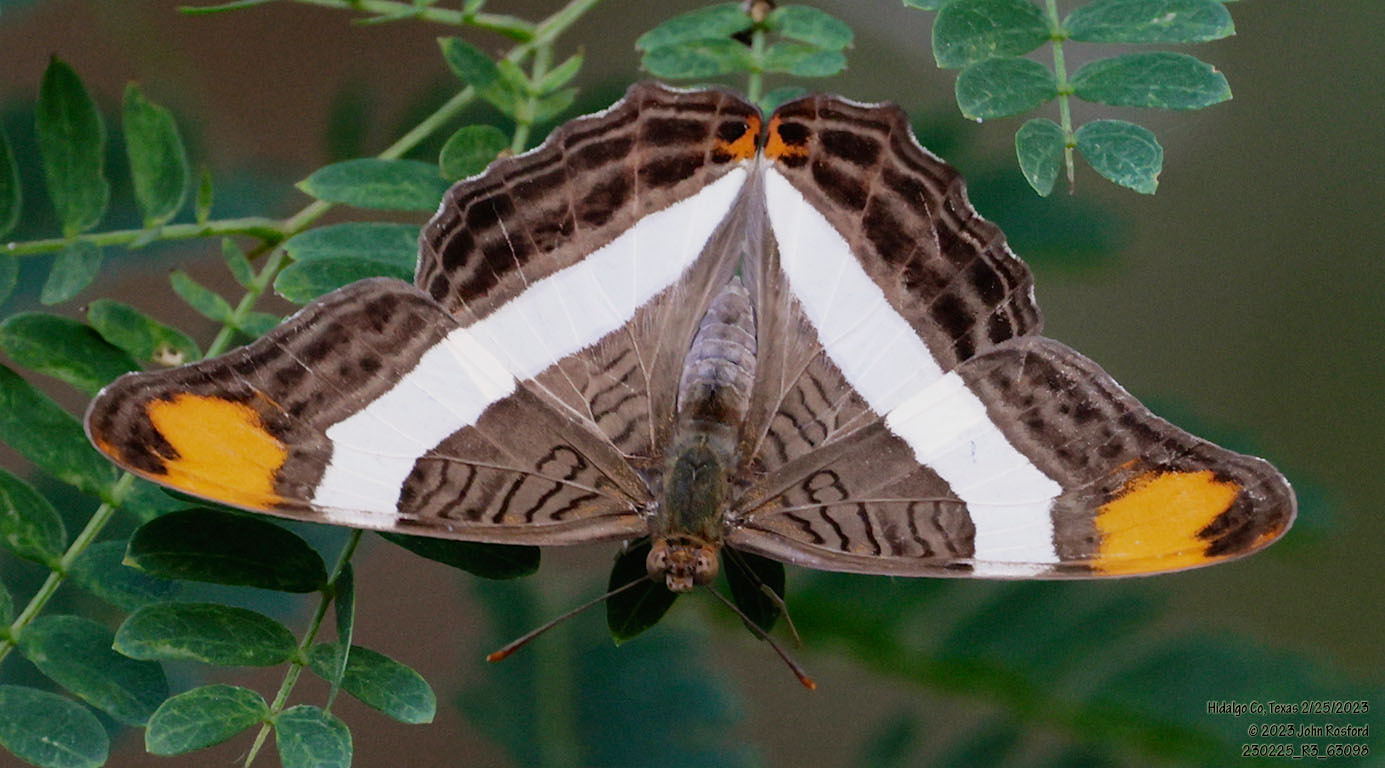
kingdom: Animalia
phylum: Arthropoda
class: Insecta
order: Lepidoptera
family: Nymphalidae
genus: Limenitis
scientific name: Limenitis fessonia
